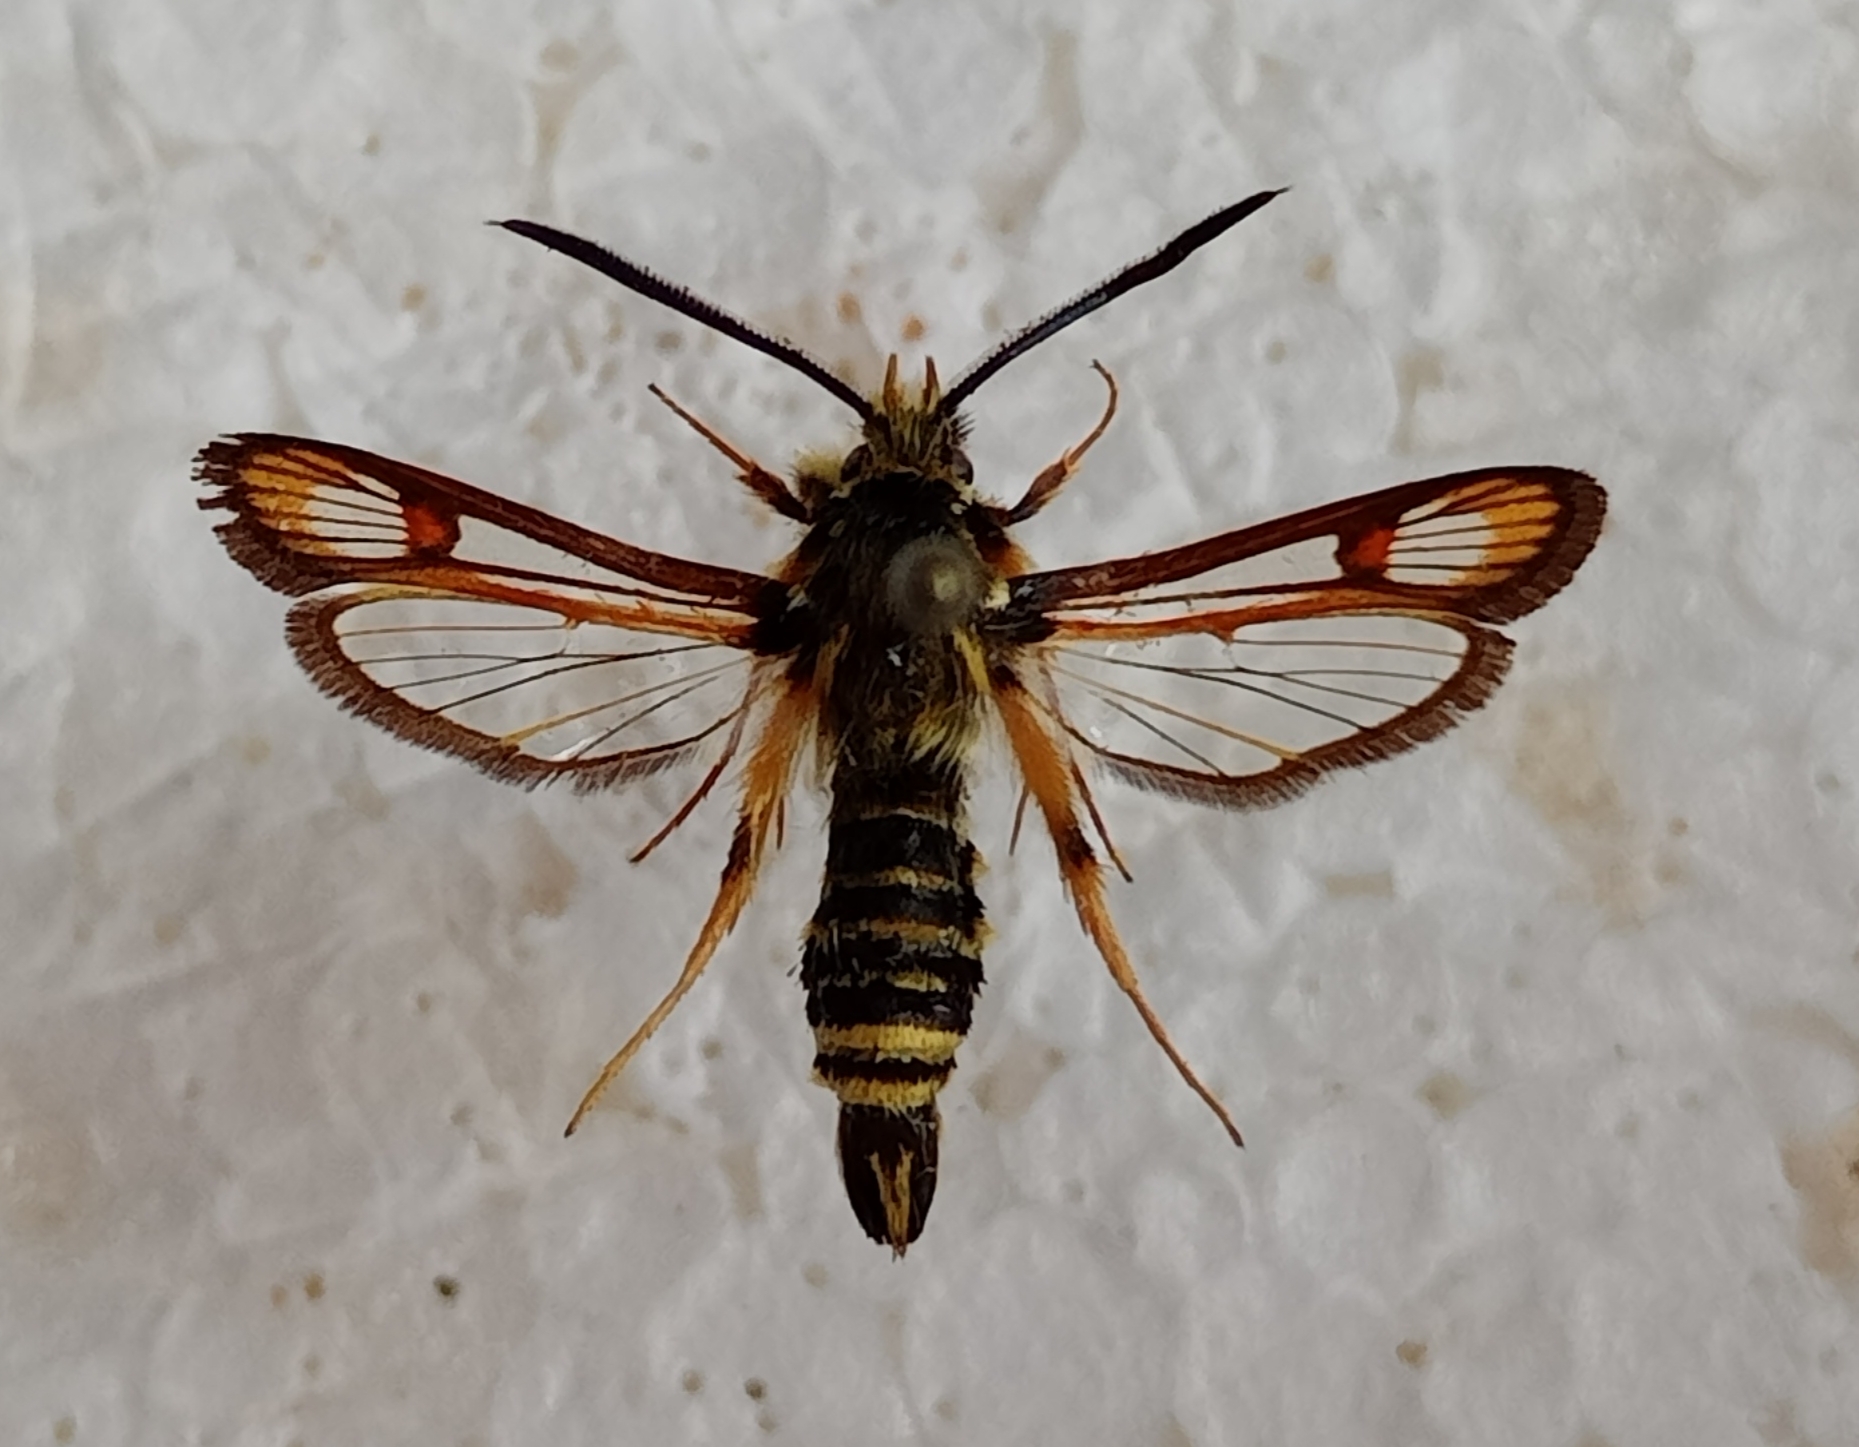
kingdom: Animalia
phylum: Arthropoda
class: Insecta
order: Lepidoptera
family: Sesiidae
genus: Bembecia
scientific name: Bembecia ichneumoniformis
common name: Six-belted clearwing
